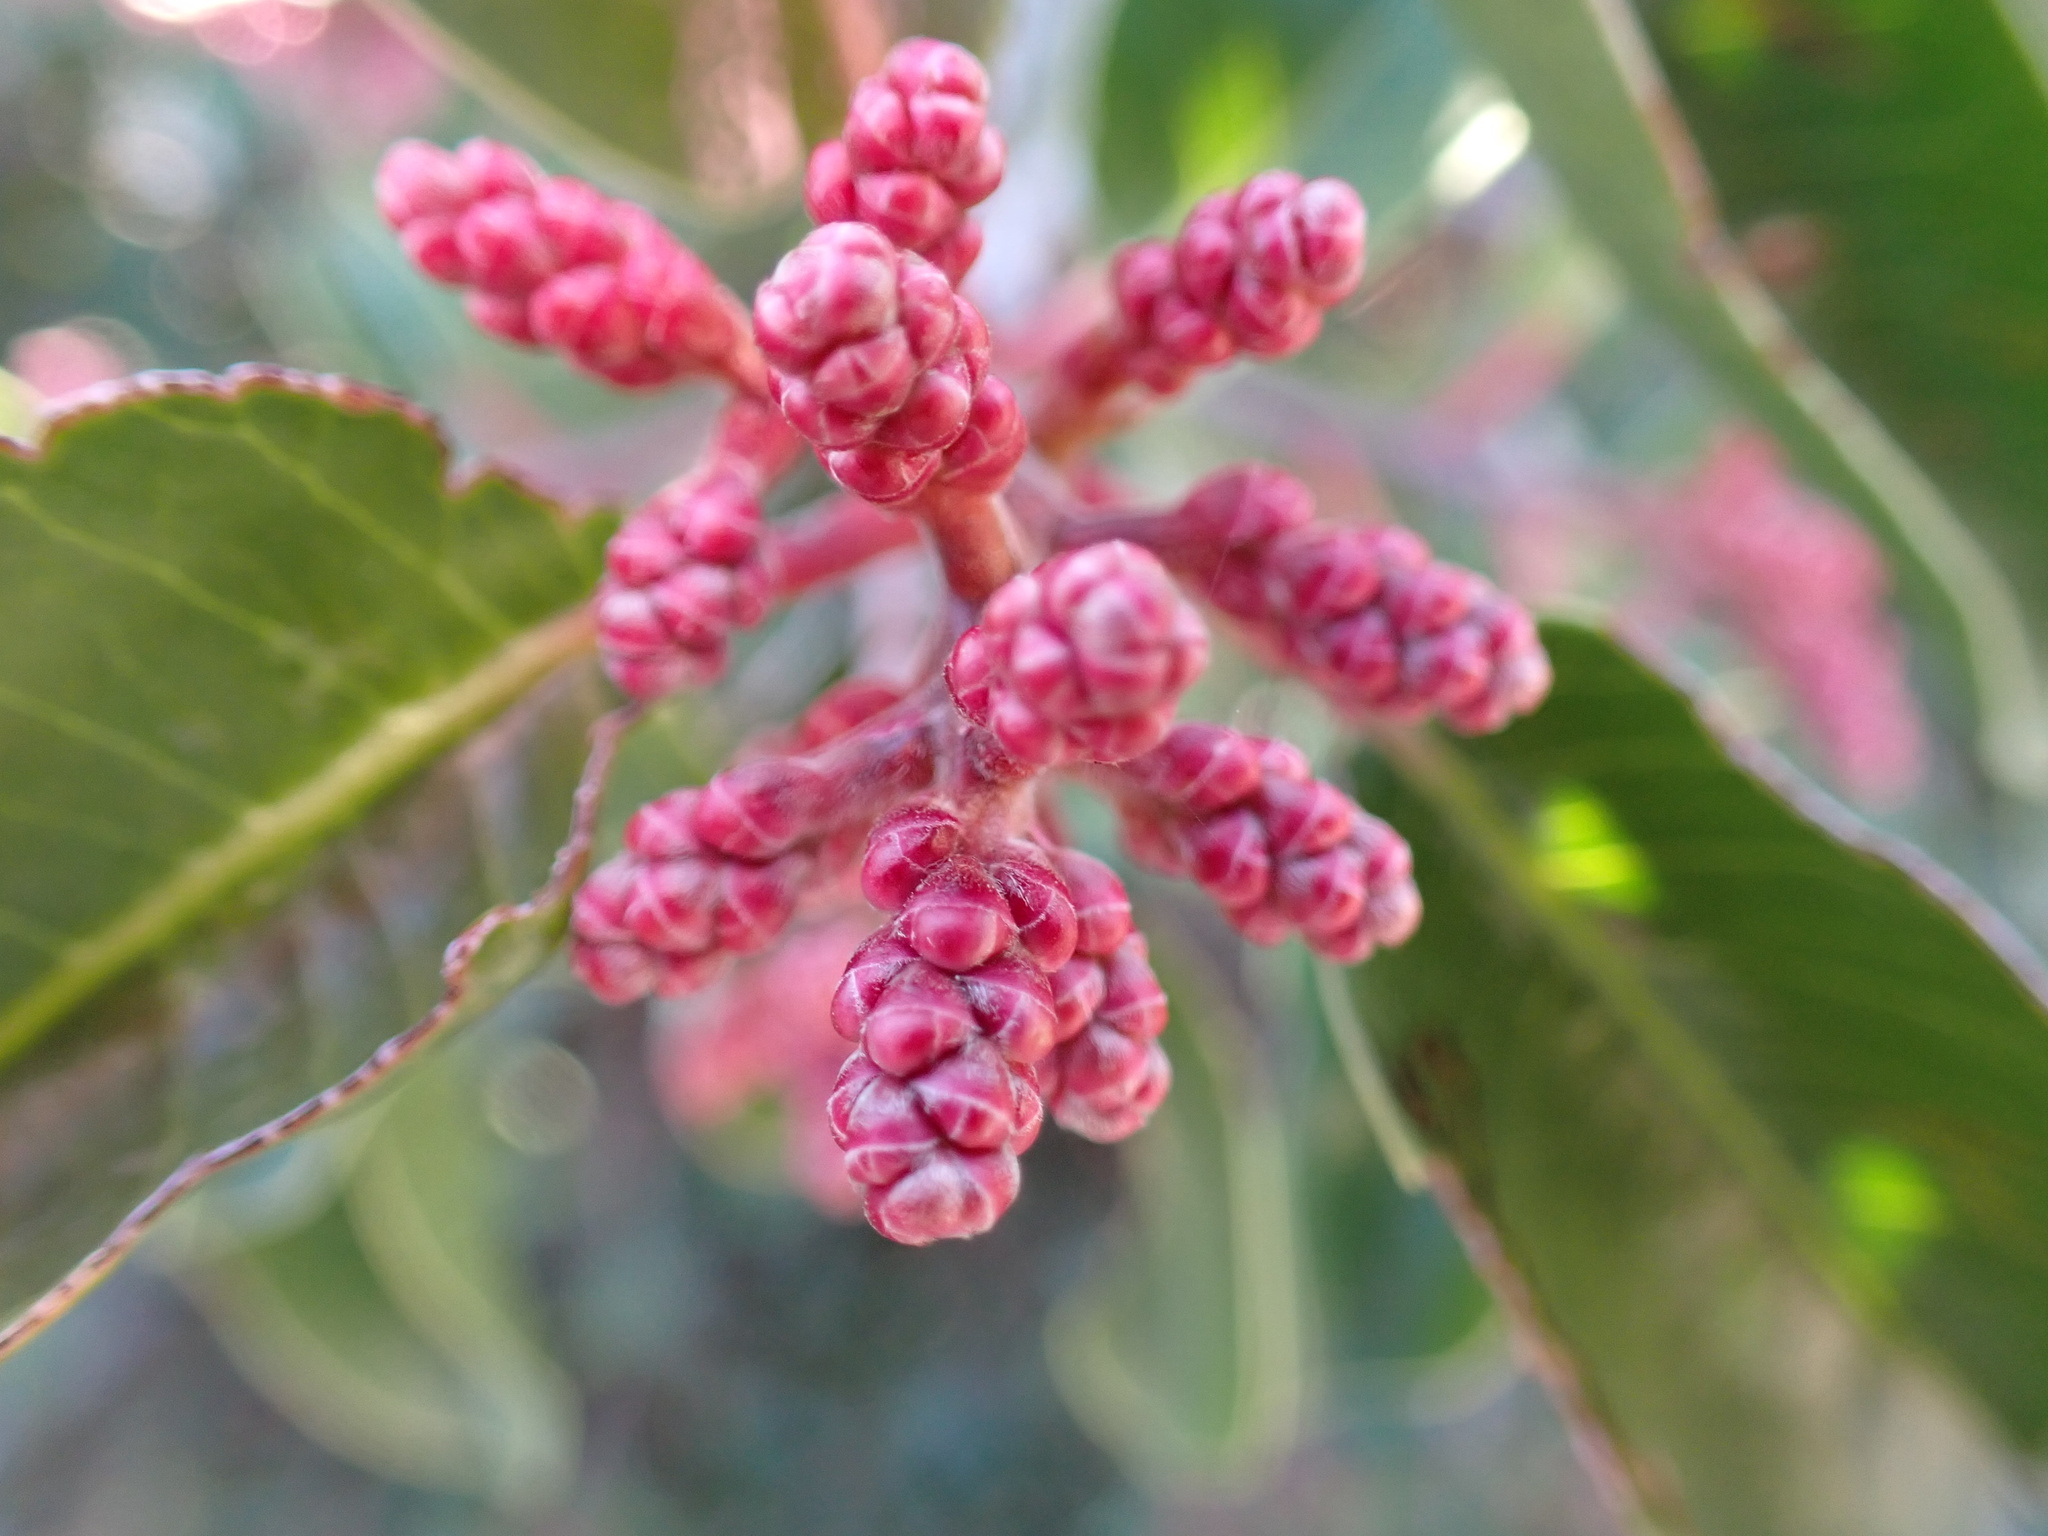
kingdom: Plantae
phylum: Tracheophyta
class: Magnoliopsida
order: Sapindales
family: Anacardiaceae
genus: Rhus
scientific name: Rhus ovata
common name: Sugar sumac
